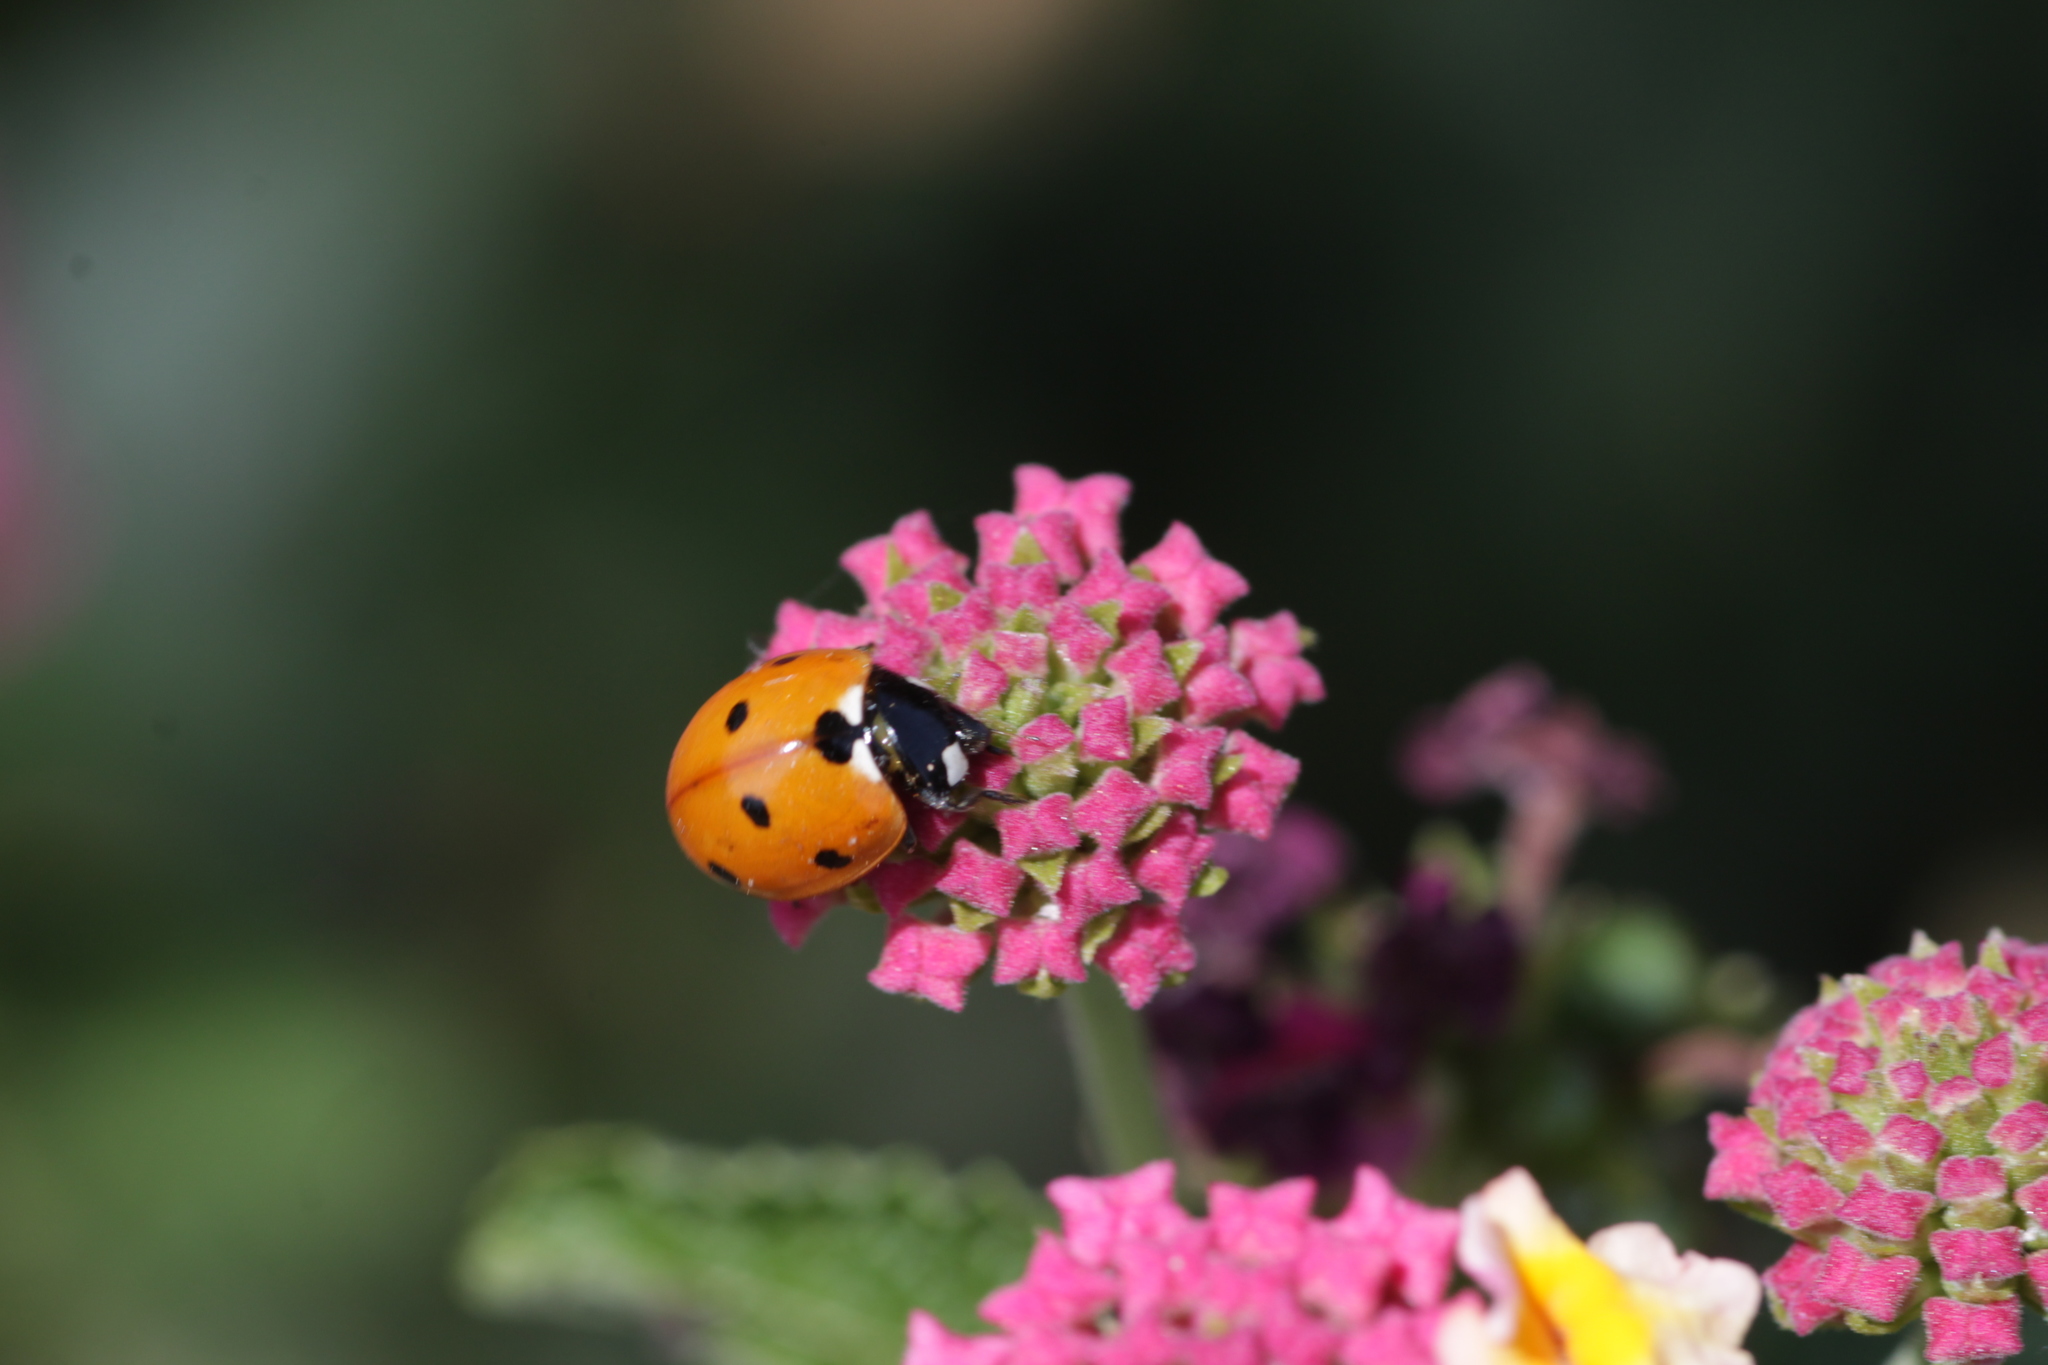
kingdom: Animalia
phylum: Arthropoda
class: Insecta
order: Coleoptera
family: Coccinellidae
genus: Coccinella
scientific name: Coccinella septempunctata
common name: Sevenspotted lady beetle
